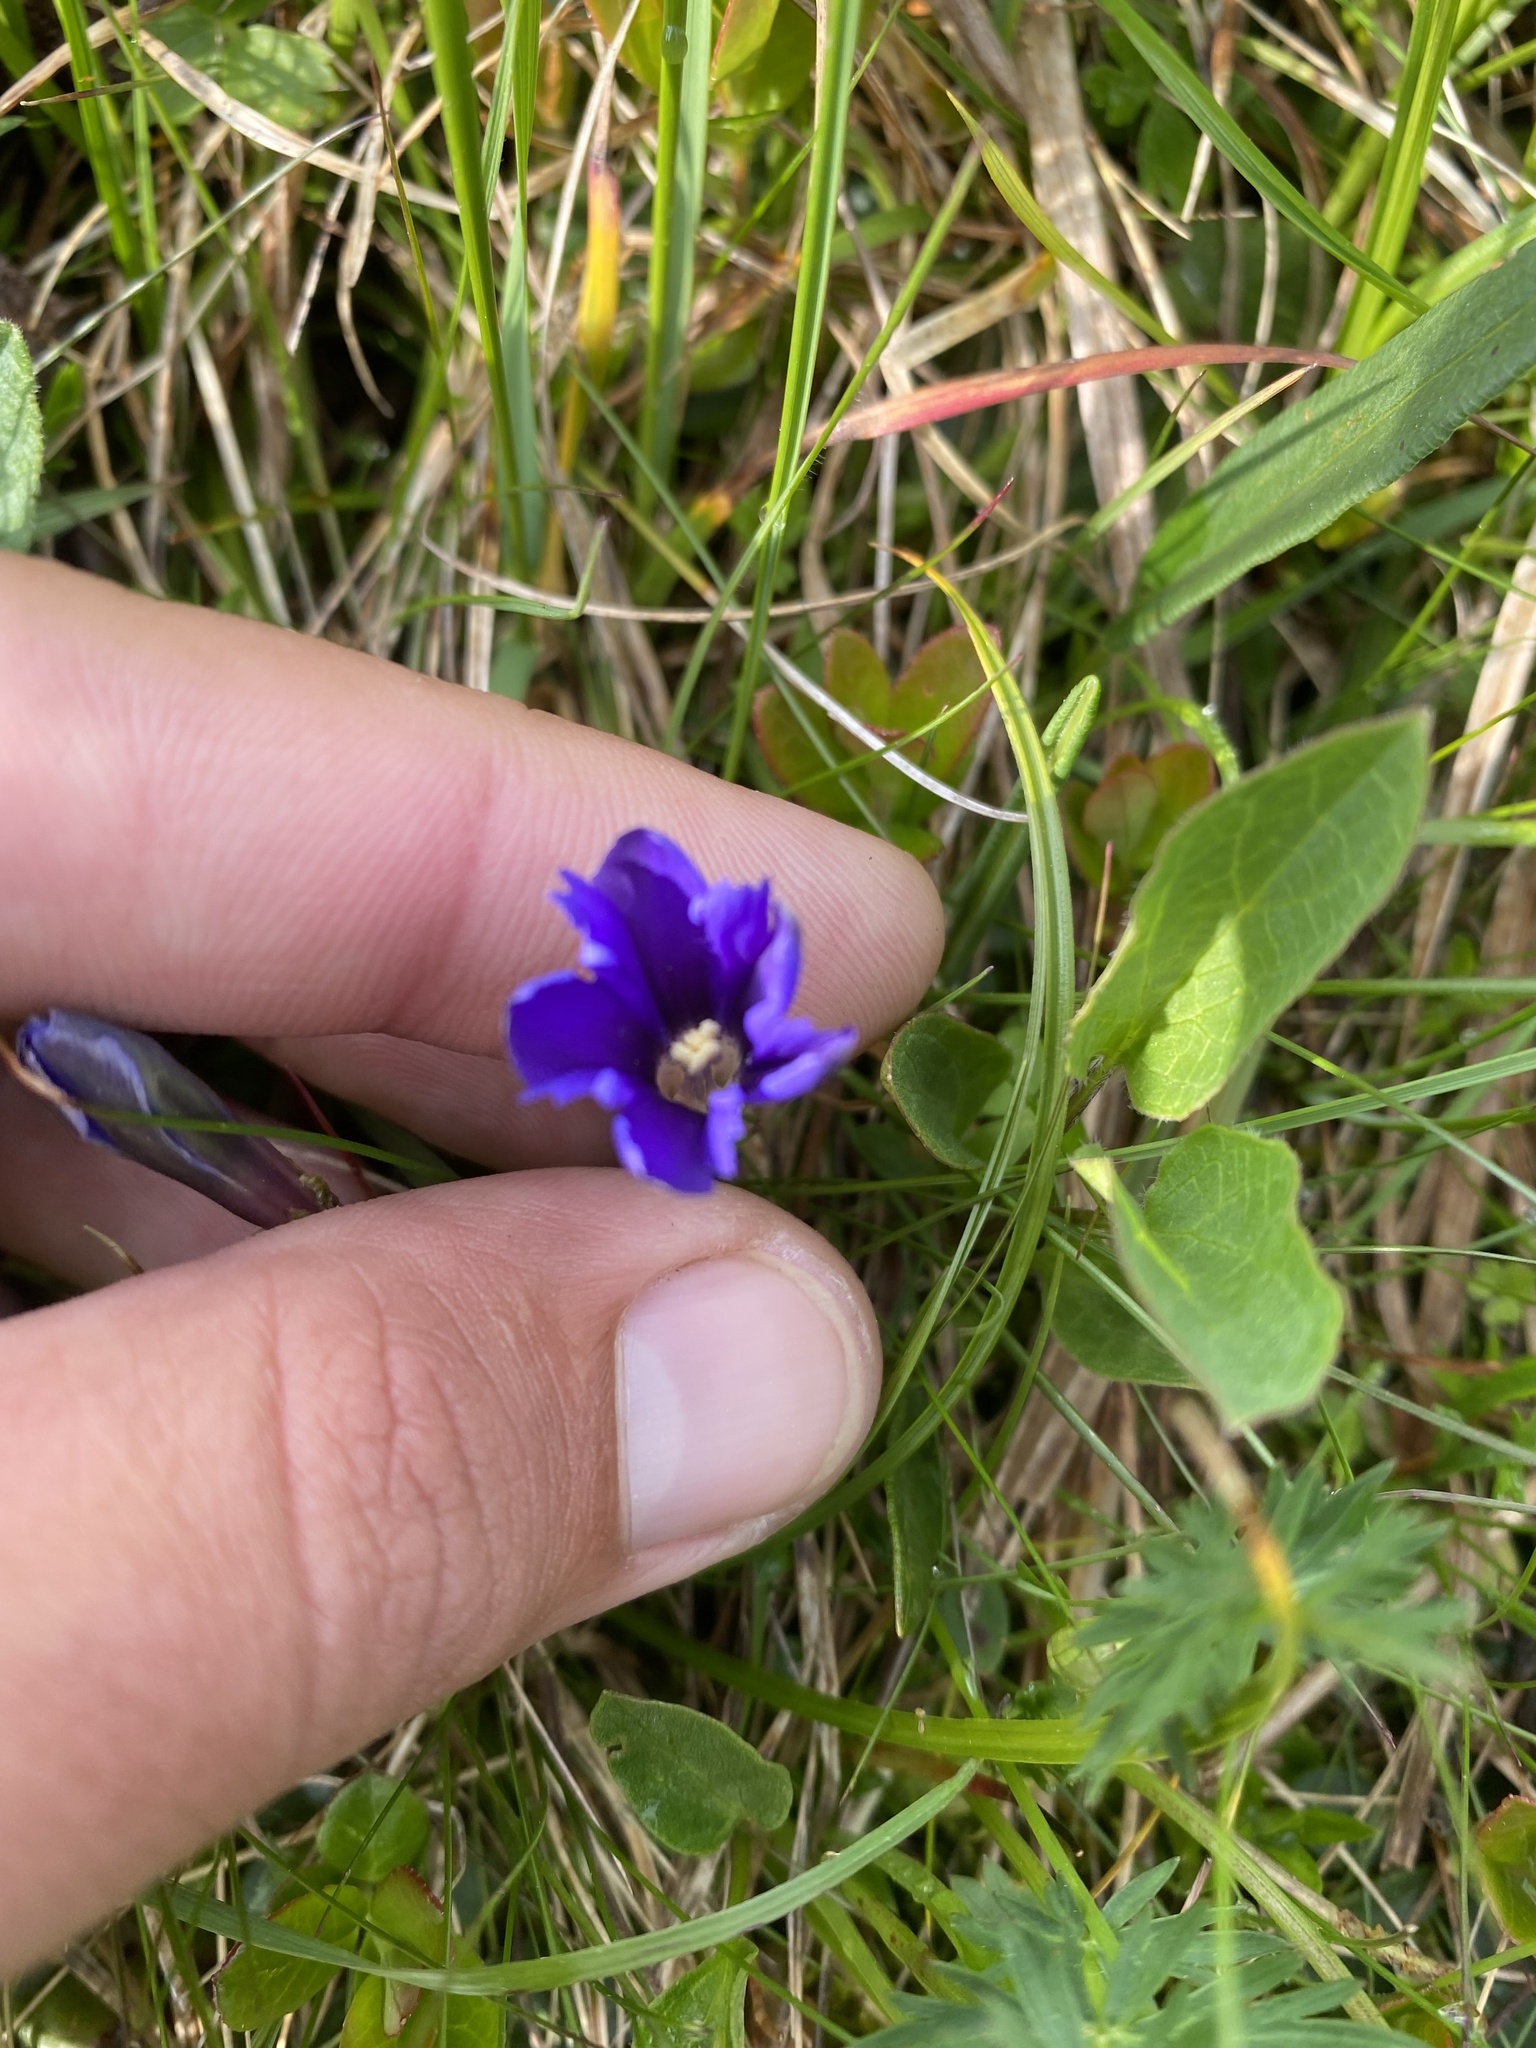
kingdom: Plantae
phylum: Tracheophyta
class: Magnoliopsida
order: Gentianales
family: Gentianaceae
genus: Gentiana
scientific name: Gentiana dshimilensis
